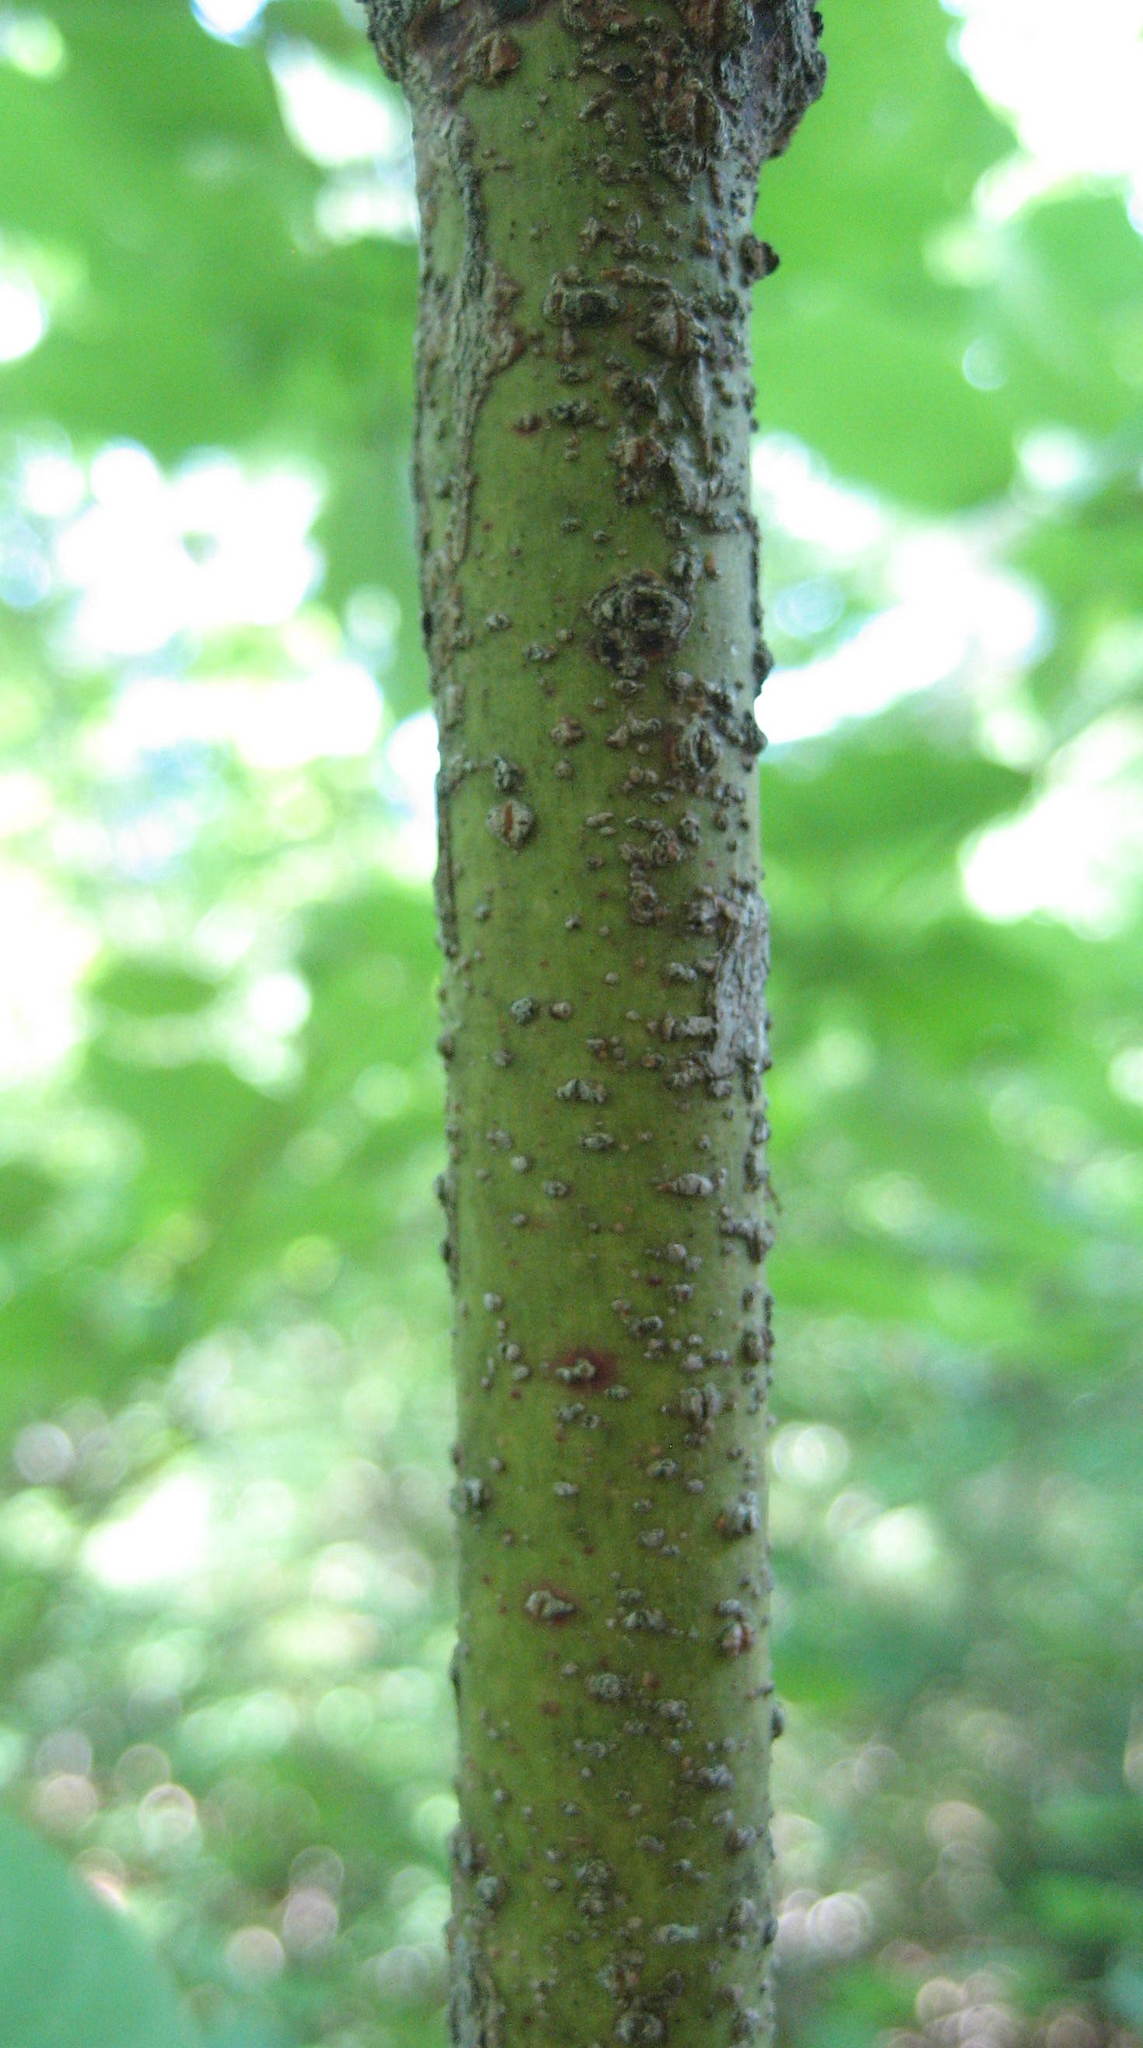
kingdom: Plantae
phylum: Tracheophyta
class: Magnoliopsida
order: Cornales
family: Cornaceae
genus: Cornus
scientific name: Cornus rugosa
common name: Round-leaf dogwood
